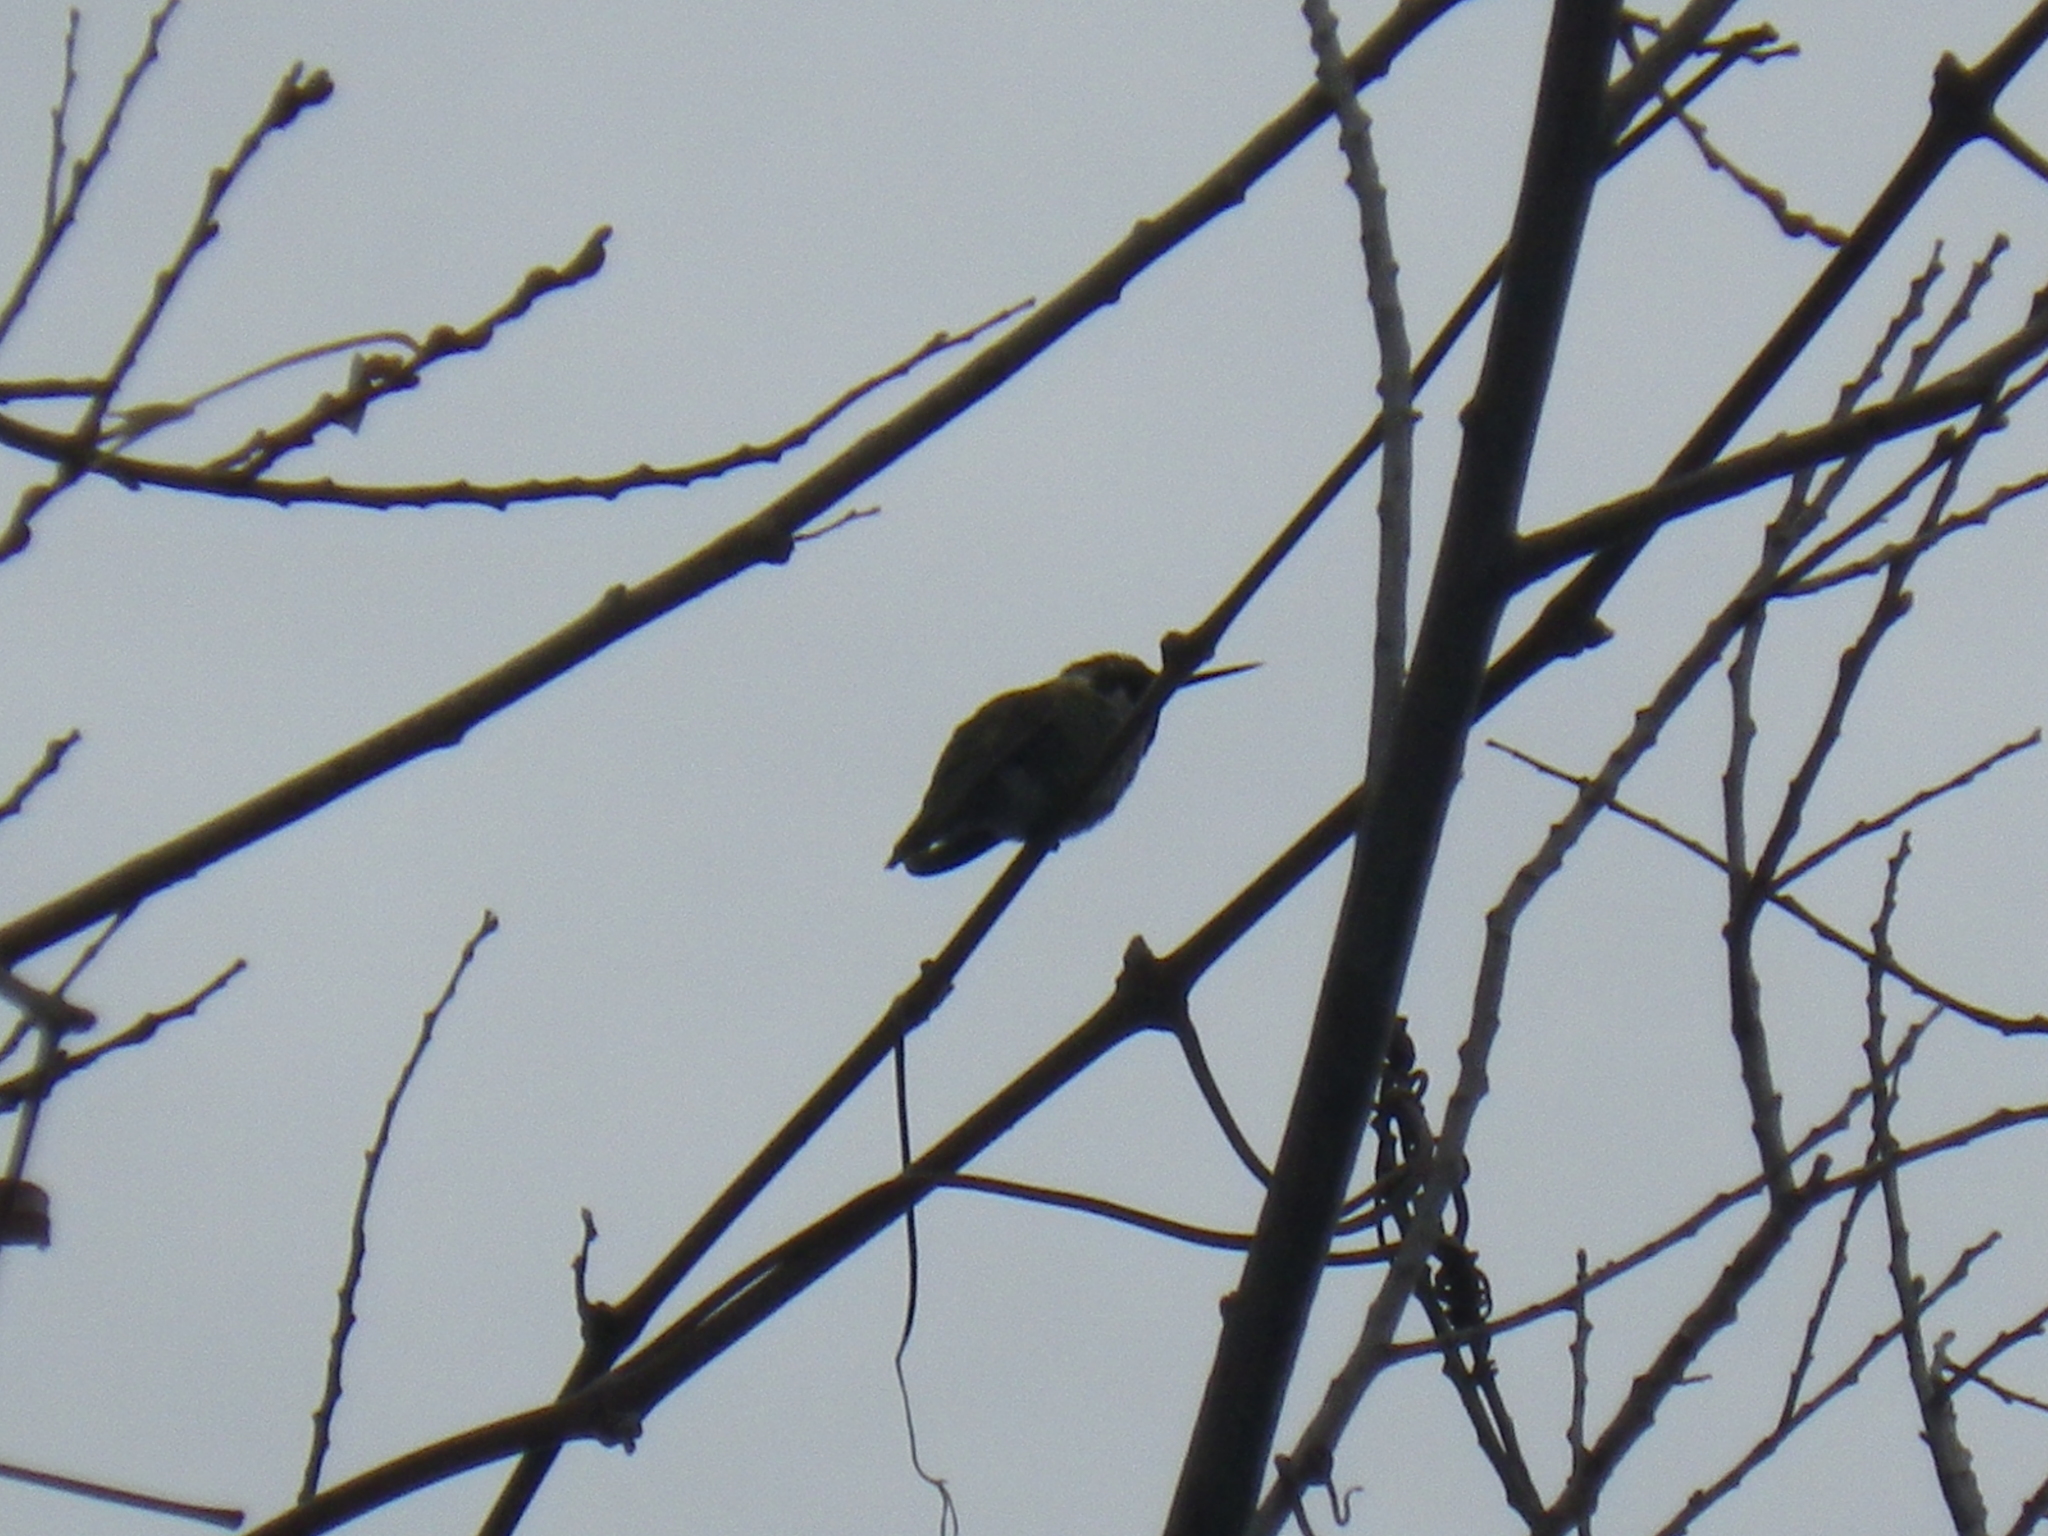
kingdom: Animalia
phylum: Chordata
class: Aves
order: Apodiformes
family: Trochilidae
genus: Calypte
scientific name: Calypte anna
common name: Anna's hummingbird
